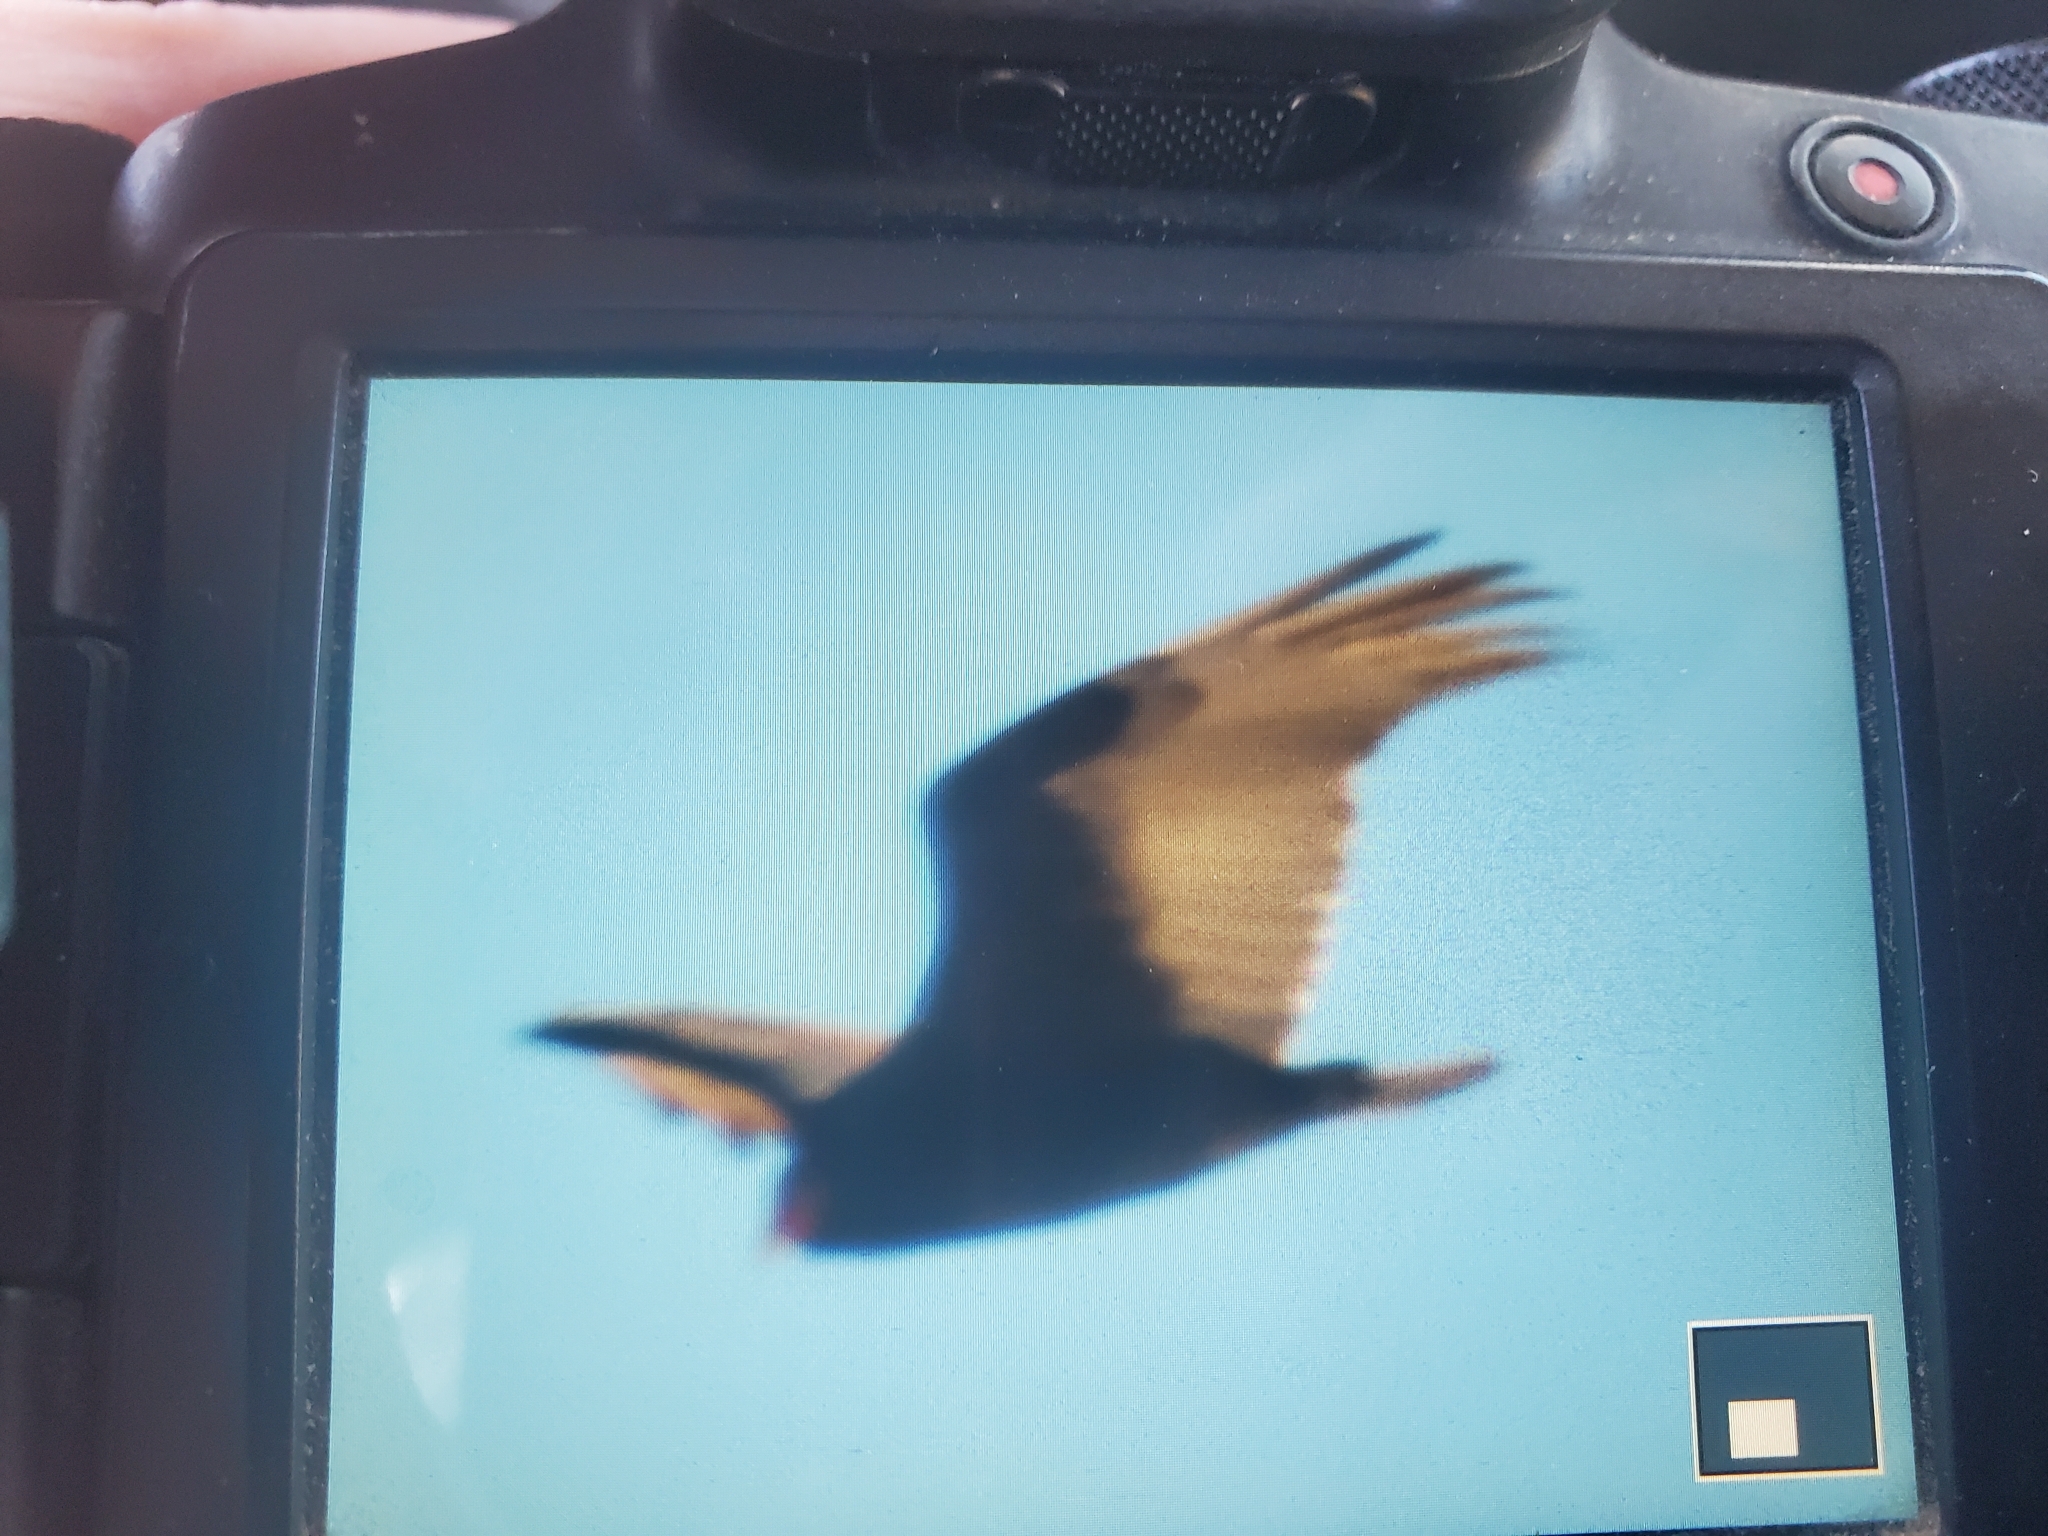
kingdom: Animalia
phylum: Chordata
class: Aves
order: Accipitriformes
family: Cathartidae
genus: Cathartes
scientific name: Cathartes aura
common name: Turkey vulture
